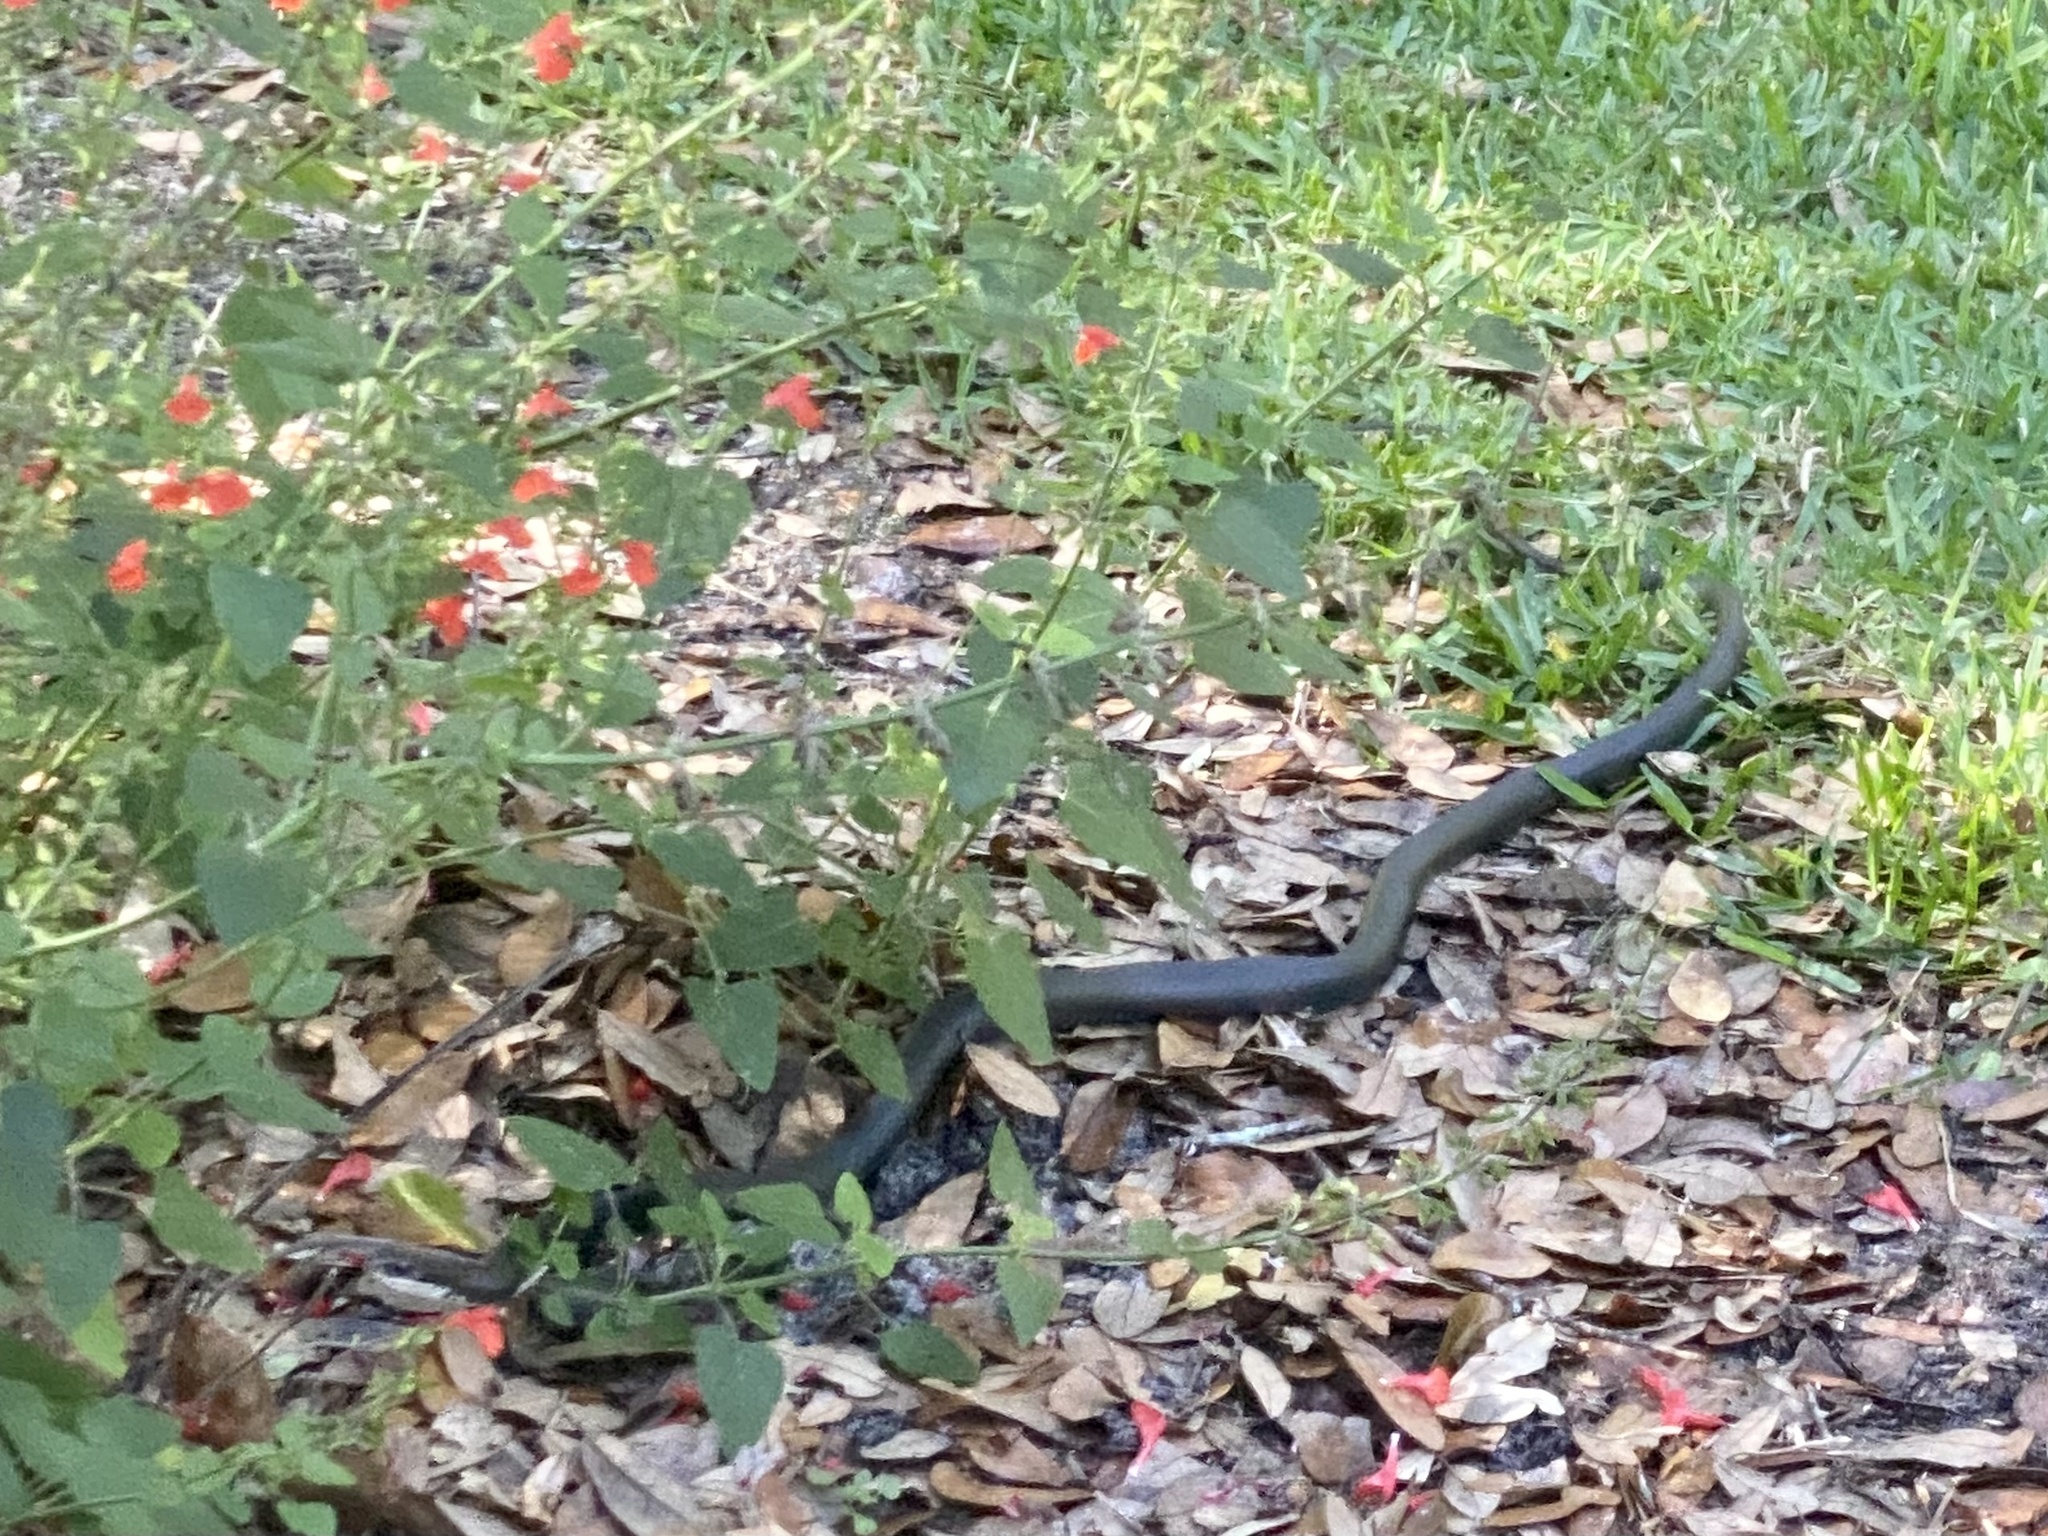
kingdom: Animalia
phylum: Chordata
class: Squamata
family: Colubridae
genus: Coluber
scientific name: Coluber constrictor
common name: Eastern racer
